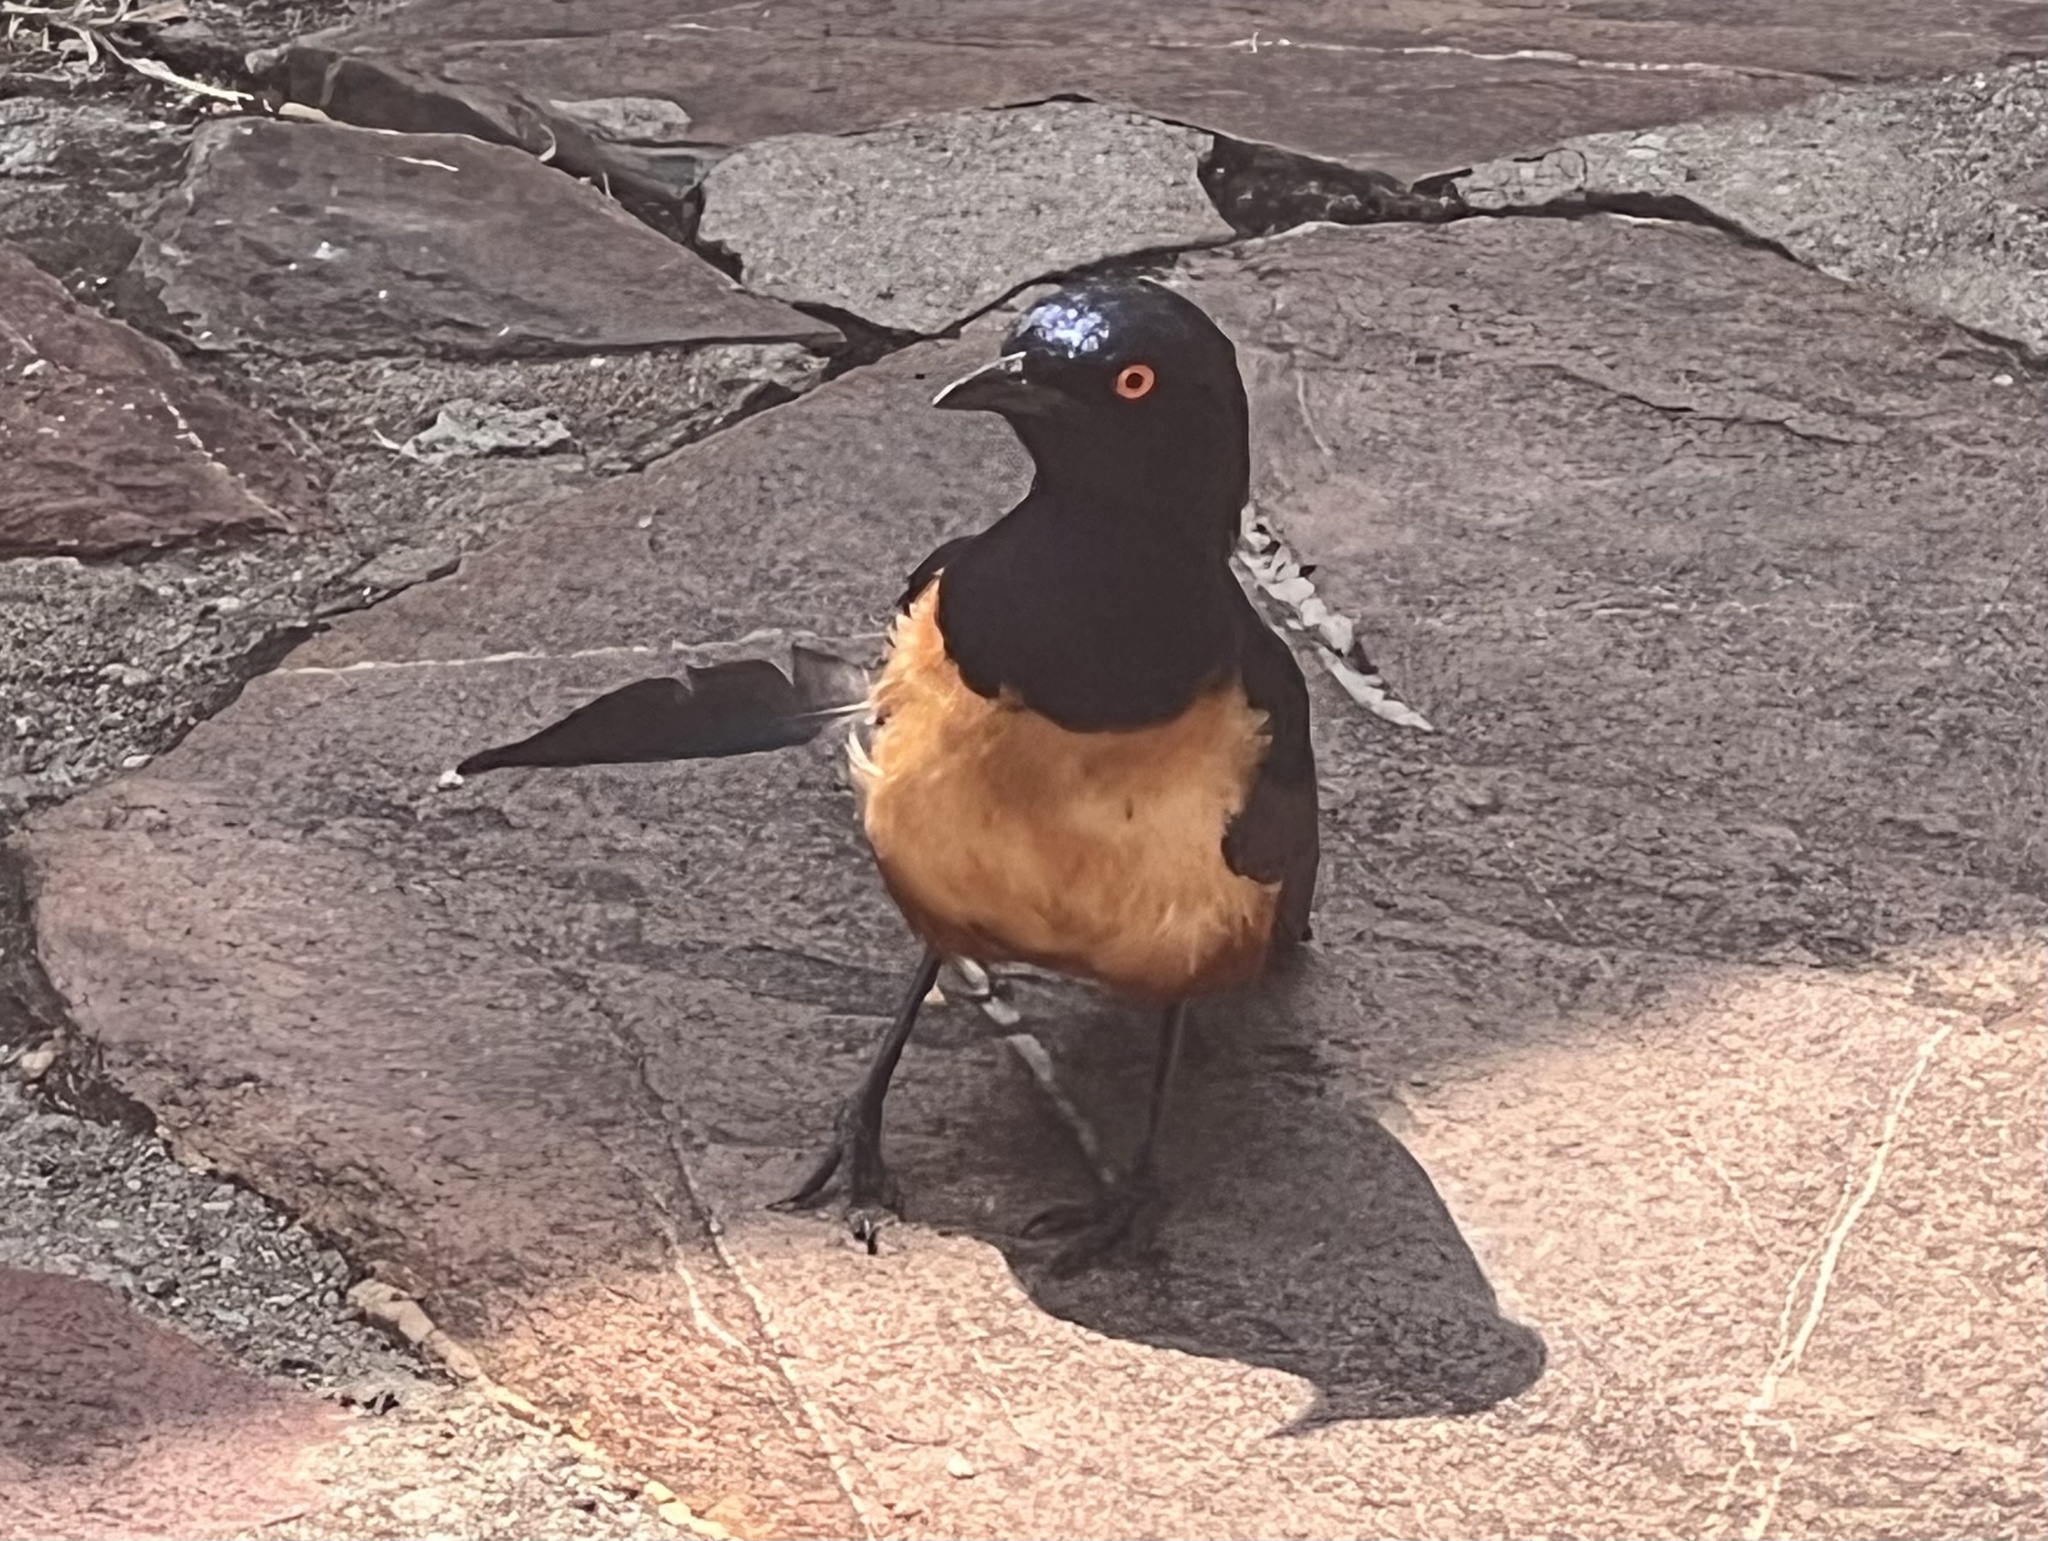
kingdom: Animalia
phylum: Chordata
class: Aves
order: Passeriformes
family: Sturnidae
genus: Lamprotornis
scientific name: Lamprotornis hildebrandti
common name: Hildebrandt's starling
